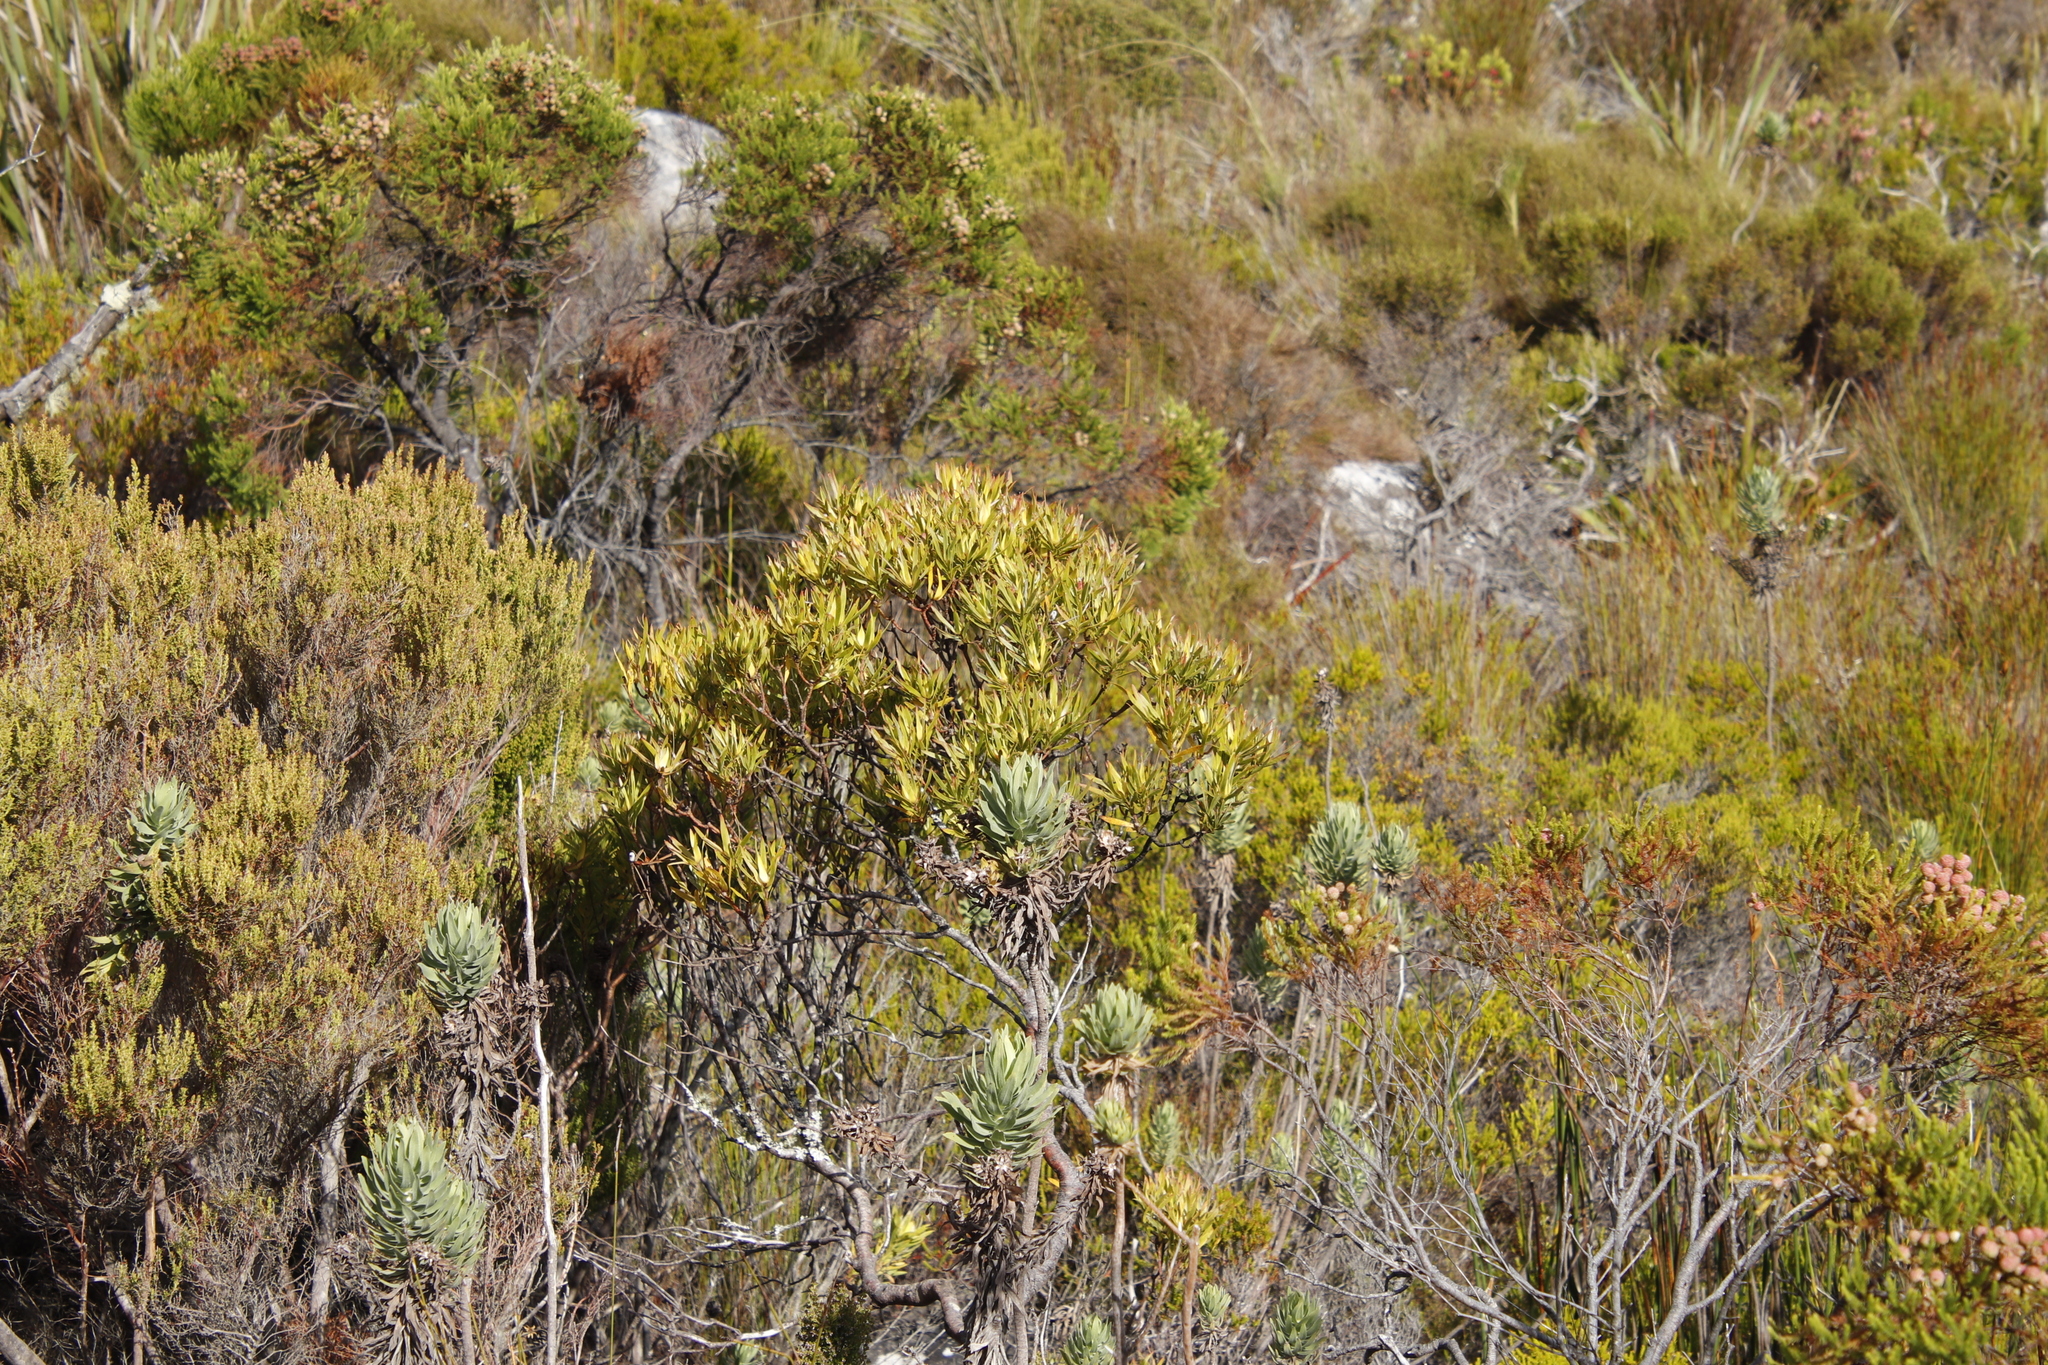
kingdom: Plantae
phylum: Tracheophyta
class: Magnoliopsida
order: Proteales
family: Proteaceae
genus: Leucadendron
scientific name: Leucadendron xanthoconus
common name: Sickle-leaf conebush
